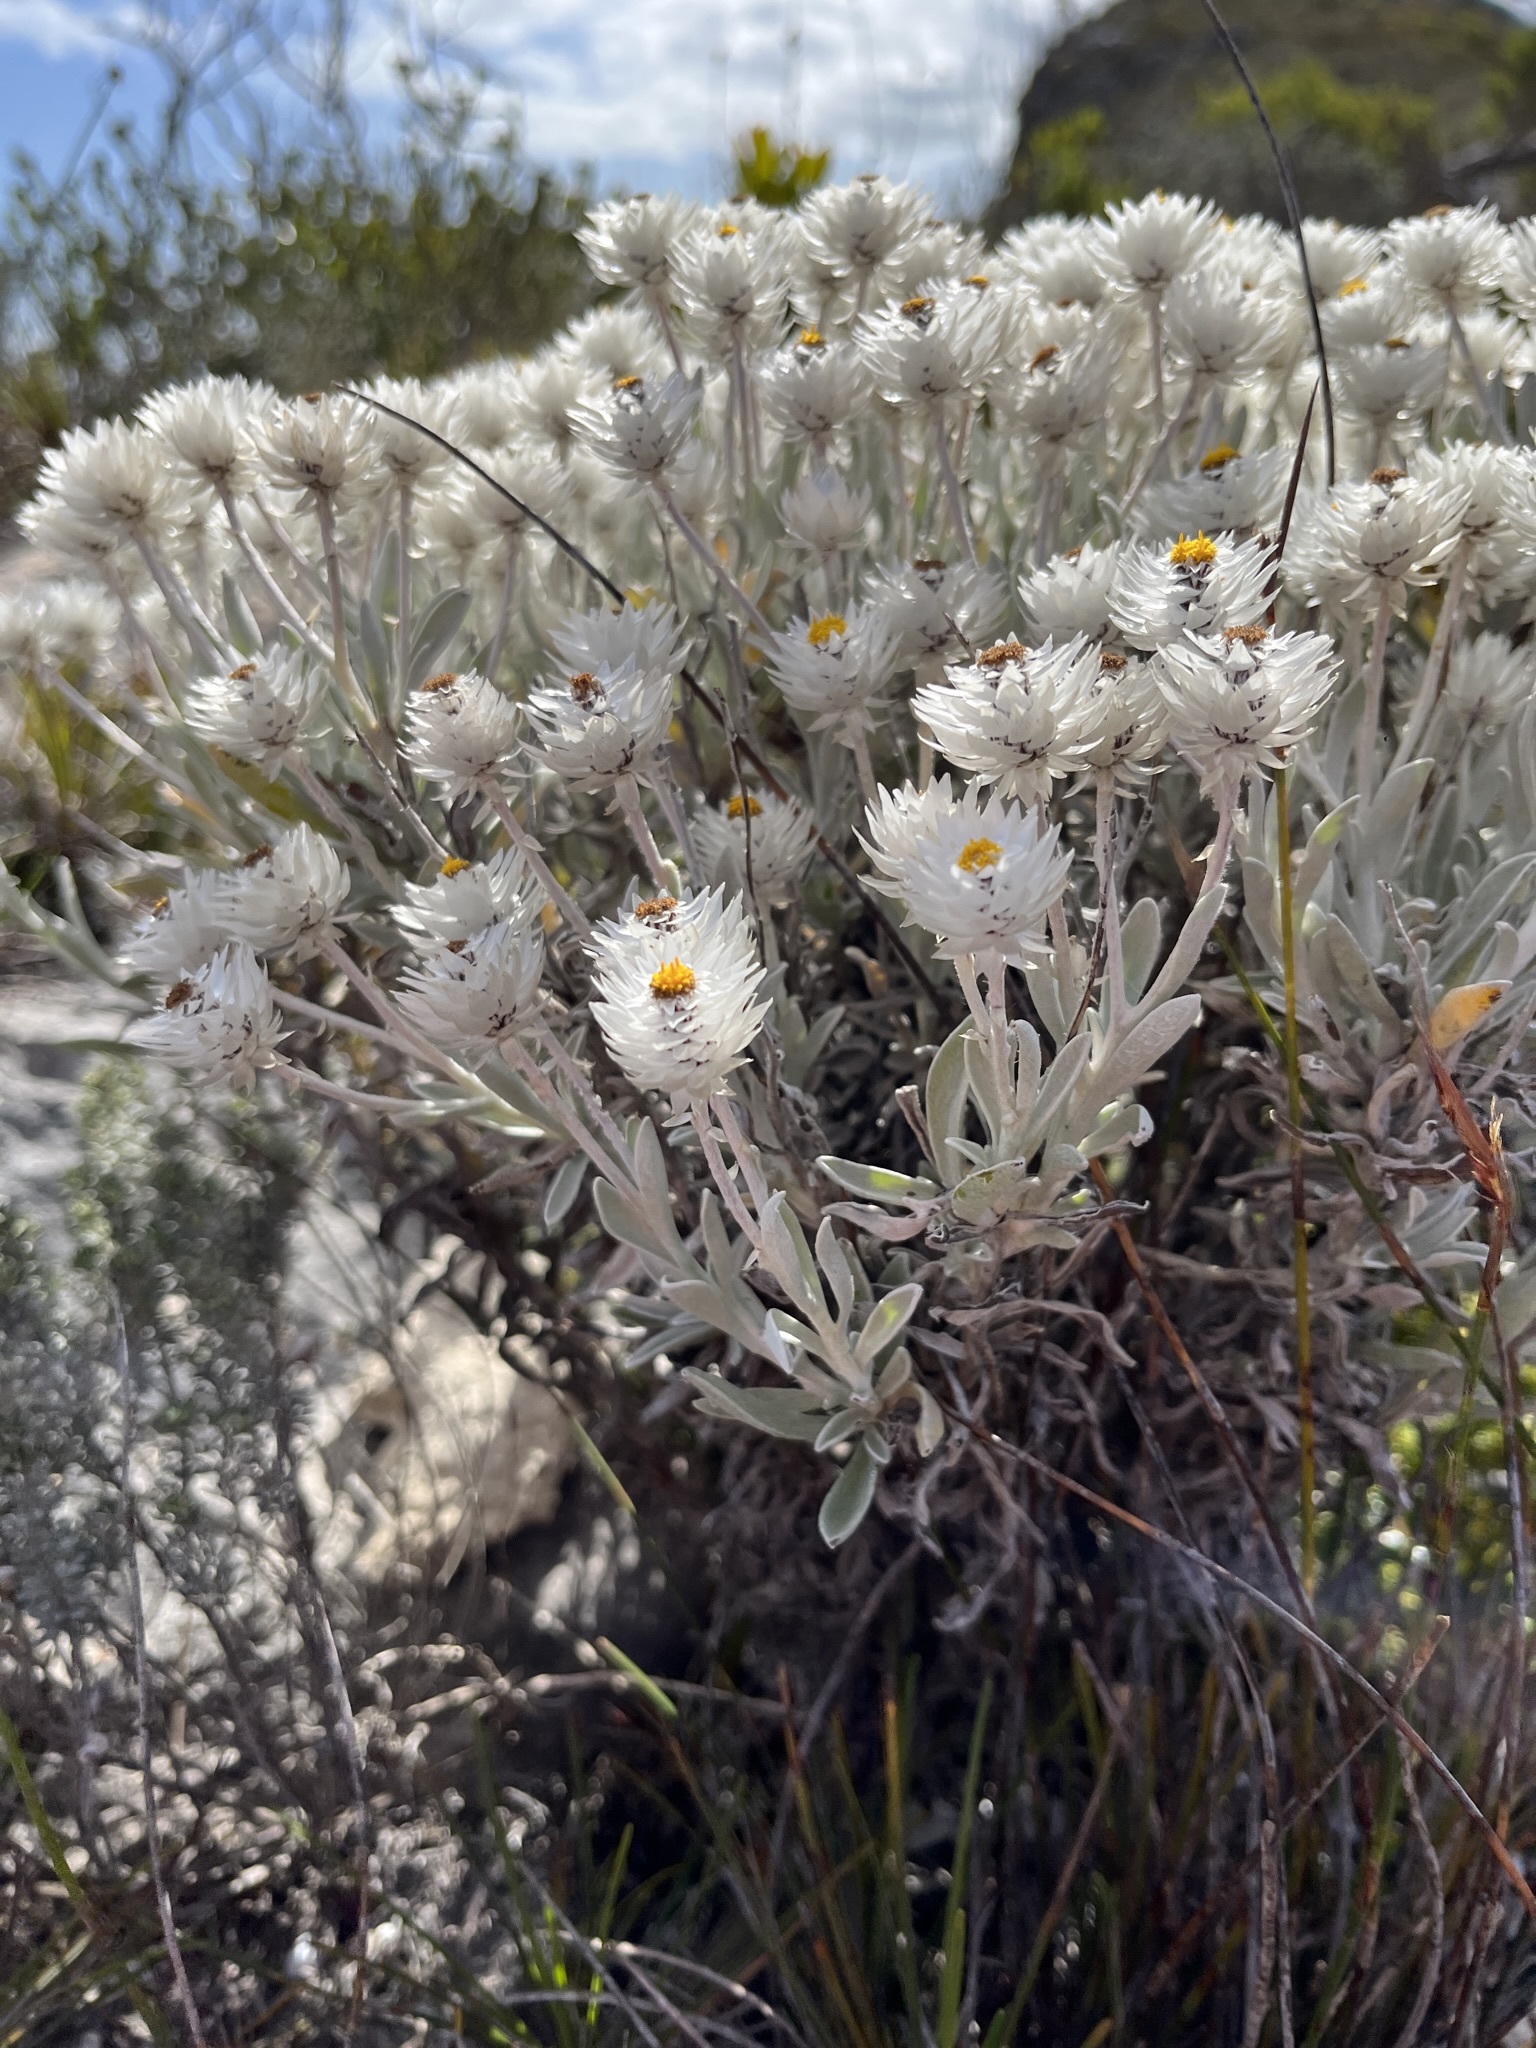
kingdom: Plantae
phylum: Tracheophyta
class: Magnoliopsida
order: Asterales
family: Asteraceae
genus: Syncarpha
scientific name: Syncarpha argyropsis
